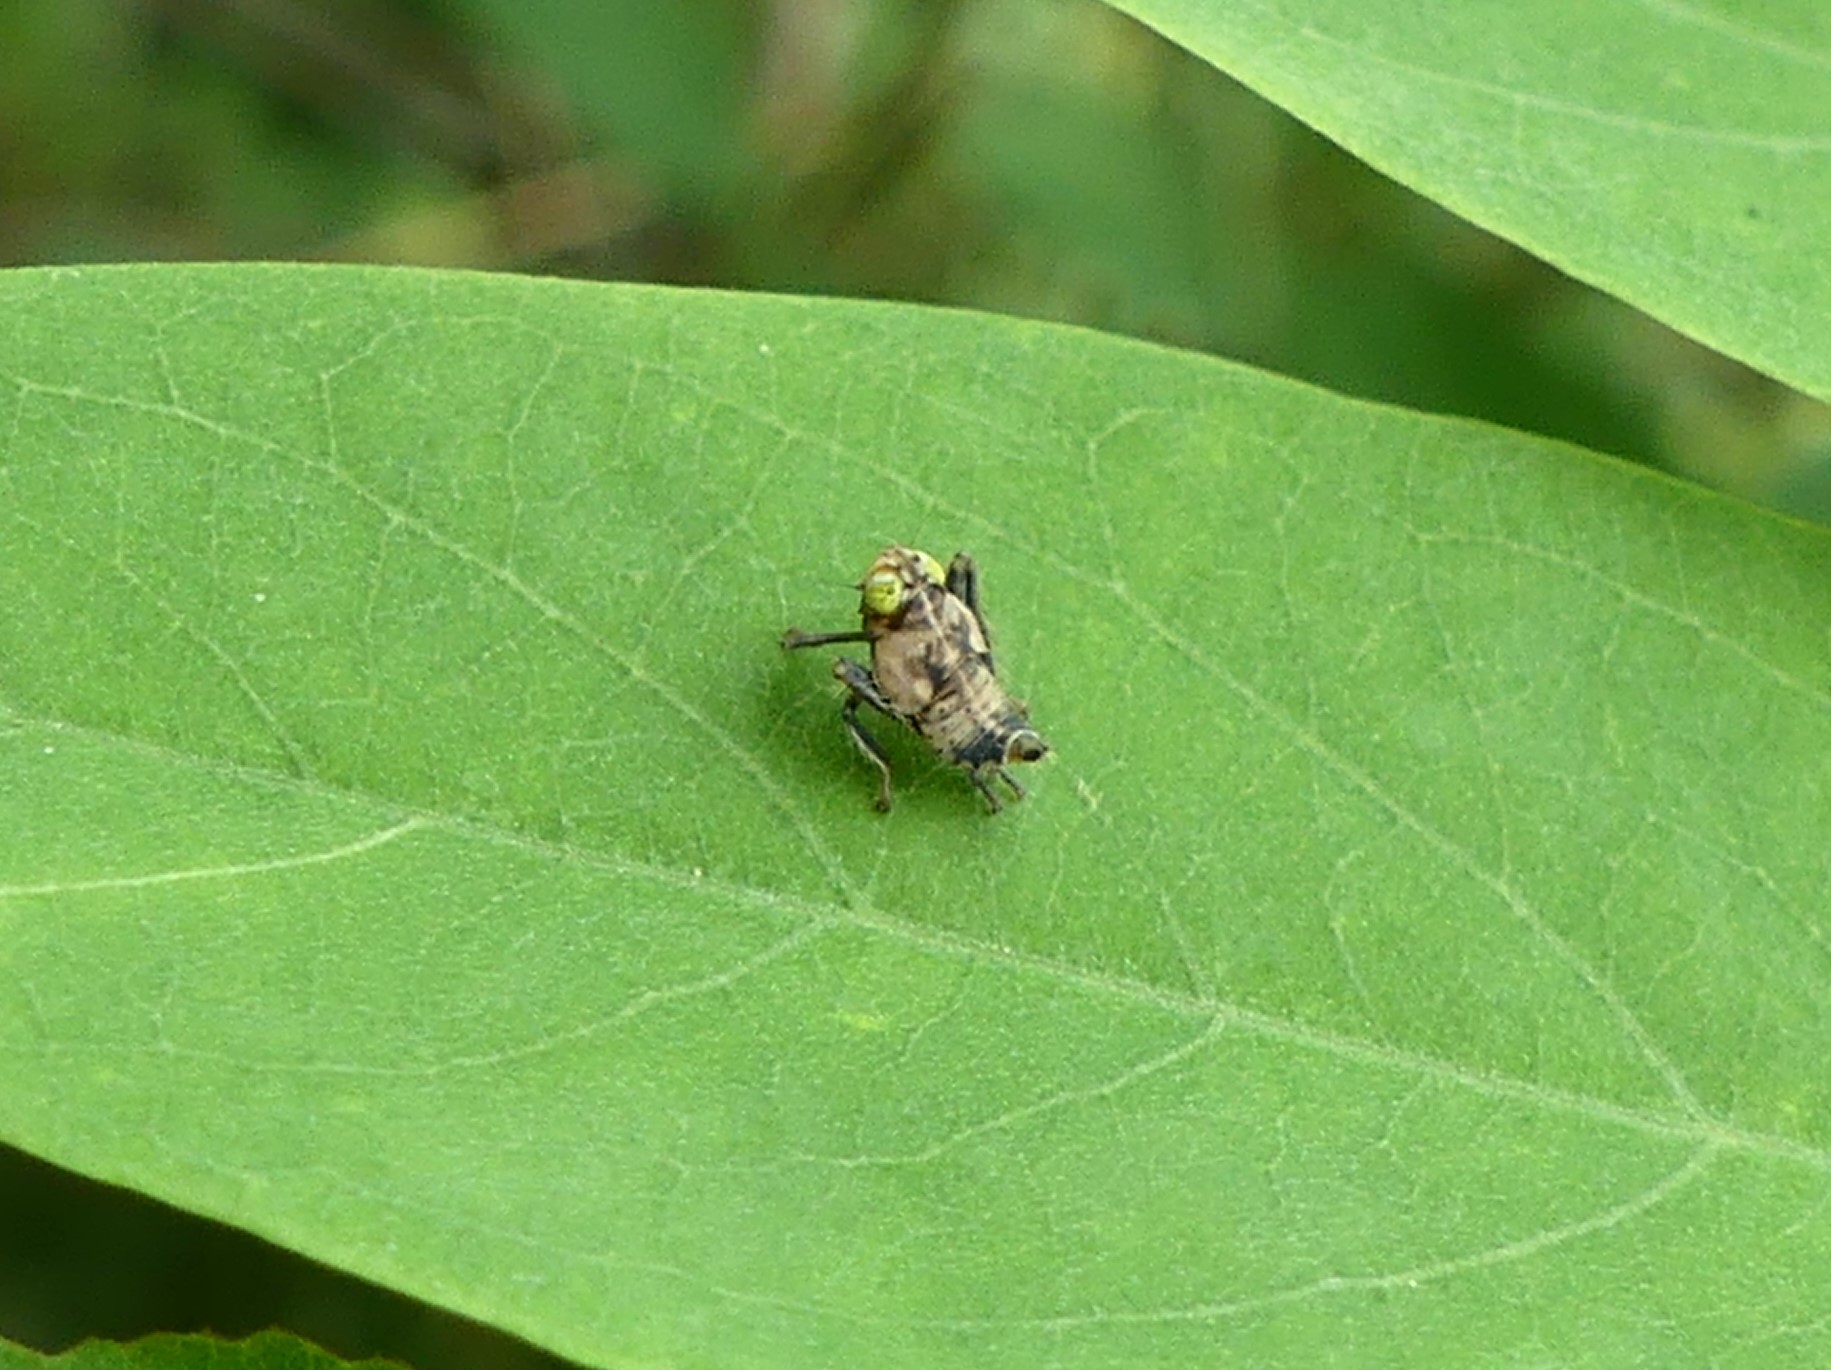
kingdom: Animalia
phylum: Arthropoda
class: Insecta
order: Hemiptera
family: Cicadellidae
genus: Jikradia
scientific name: Jikradia olitoria
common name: Coppery leafhopper
